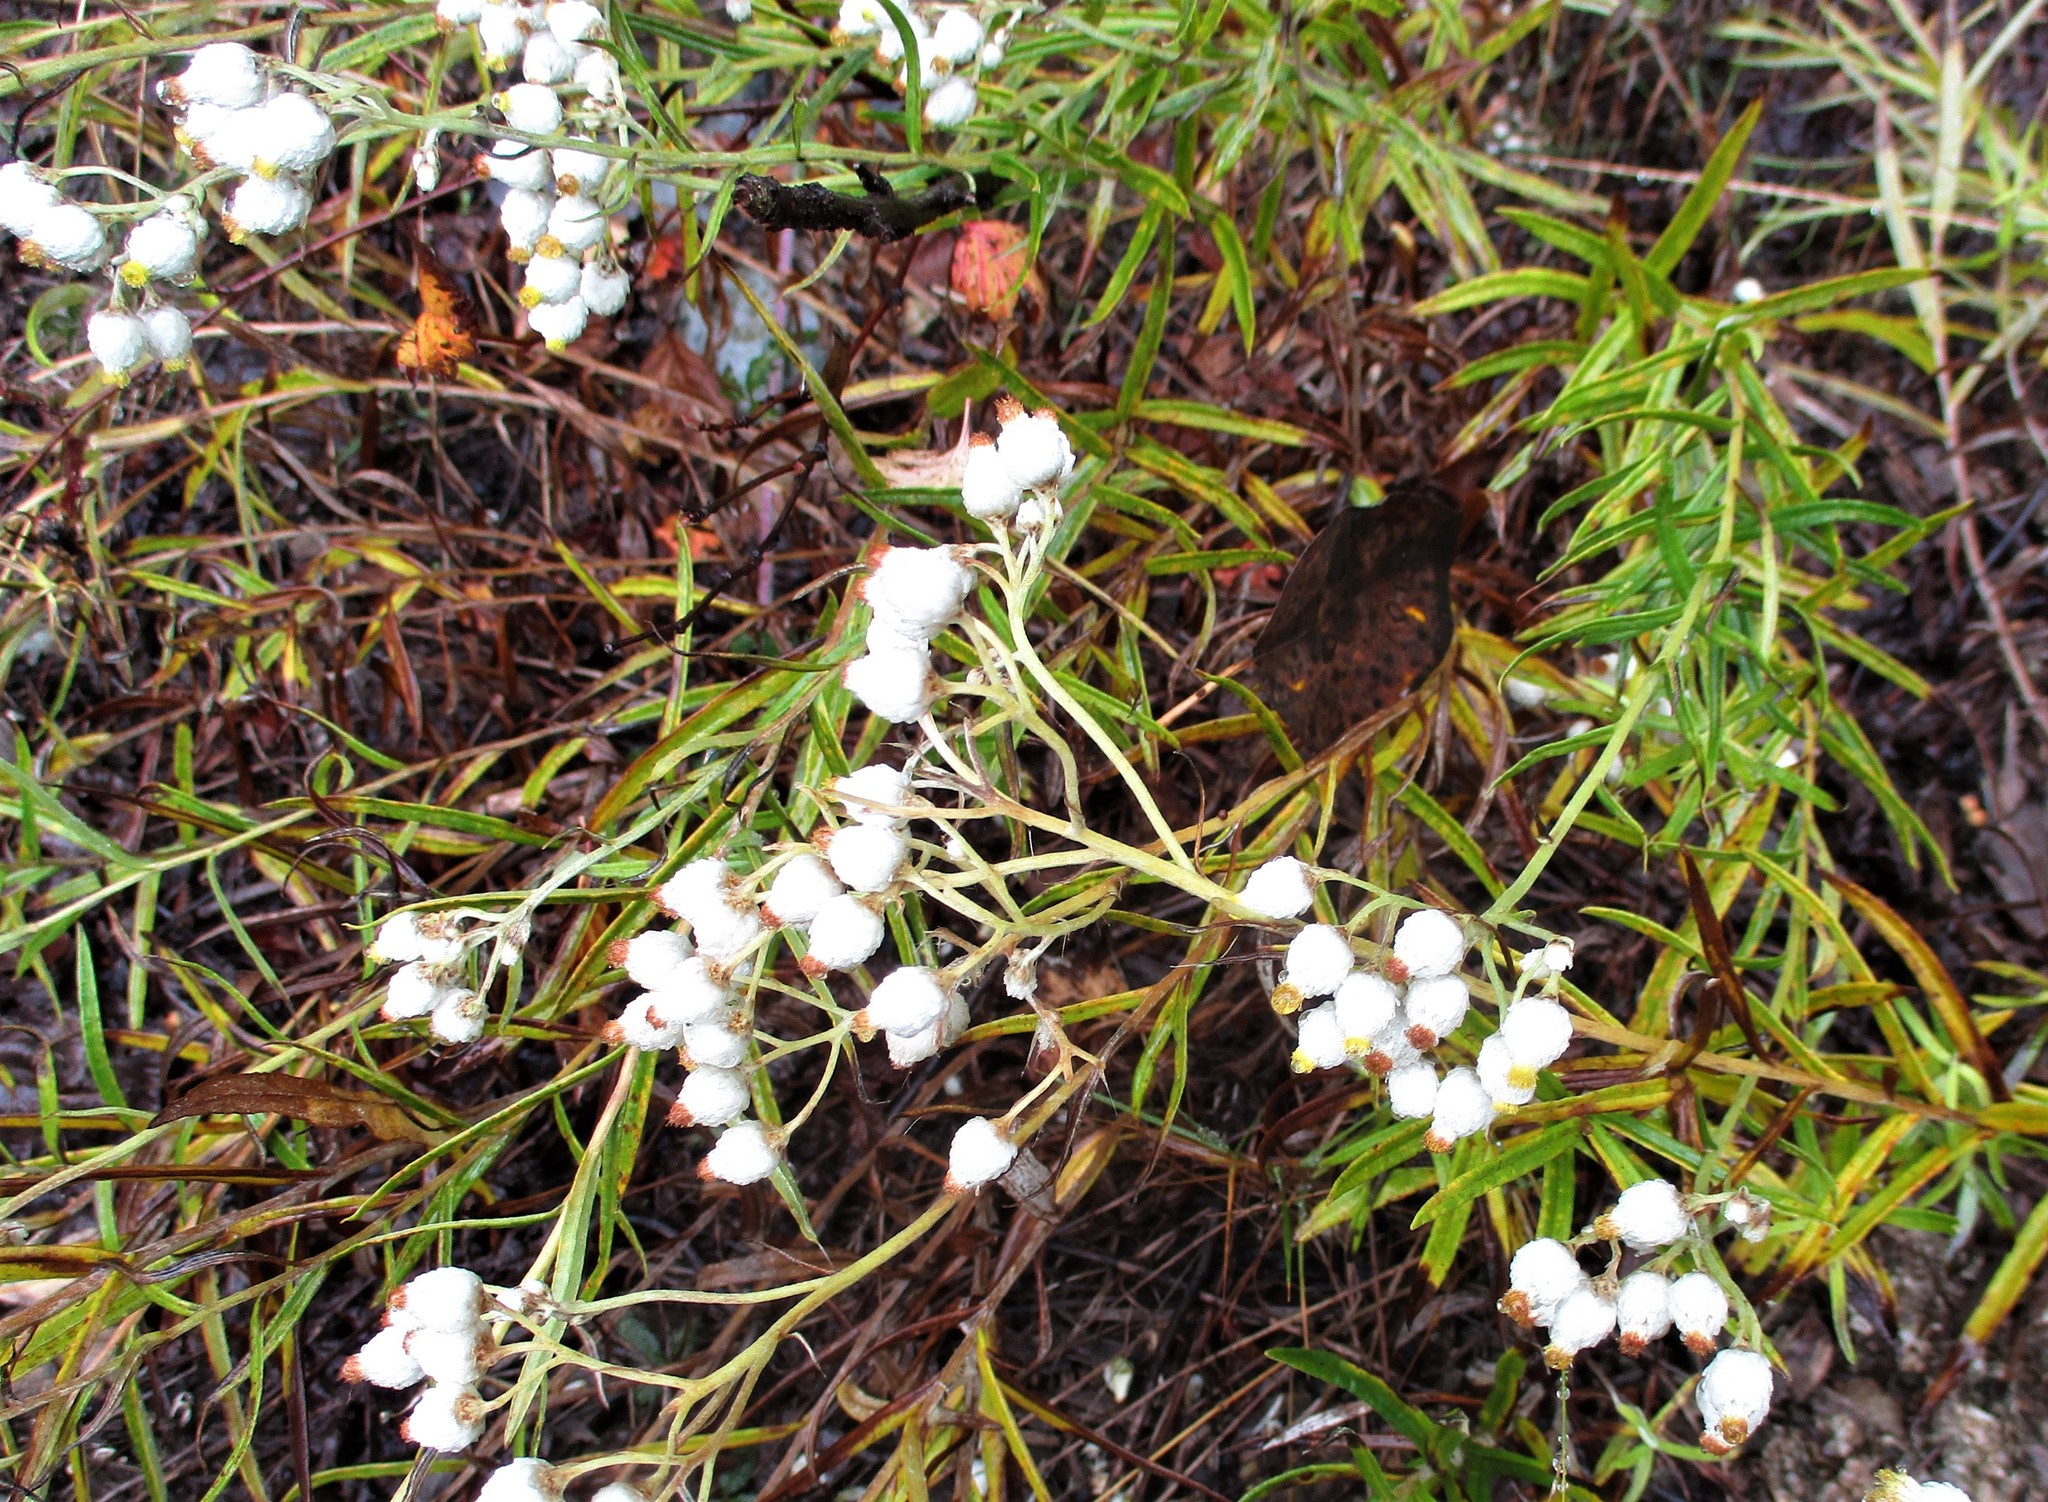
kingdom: Plantae
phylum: Tracheophyta
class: Magnoliopsida
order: Asterales
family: Asteraceae
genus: Anaphalis
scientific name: Anaphalis margaritacea
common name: Pearly everlasting
